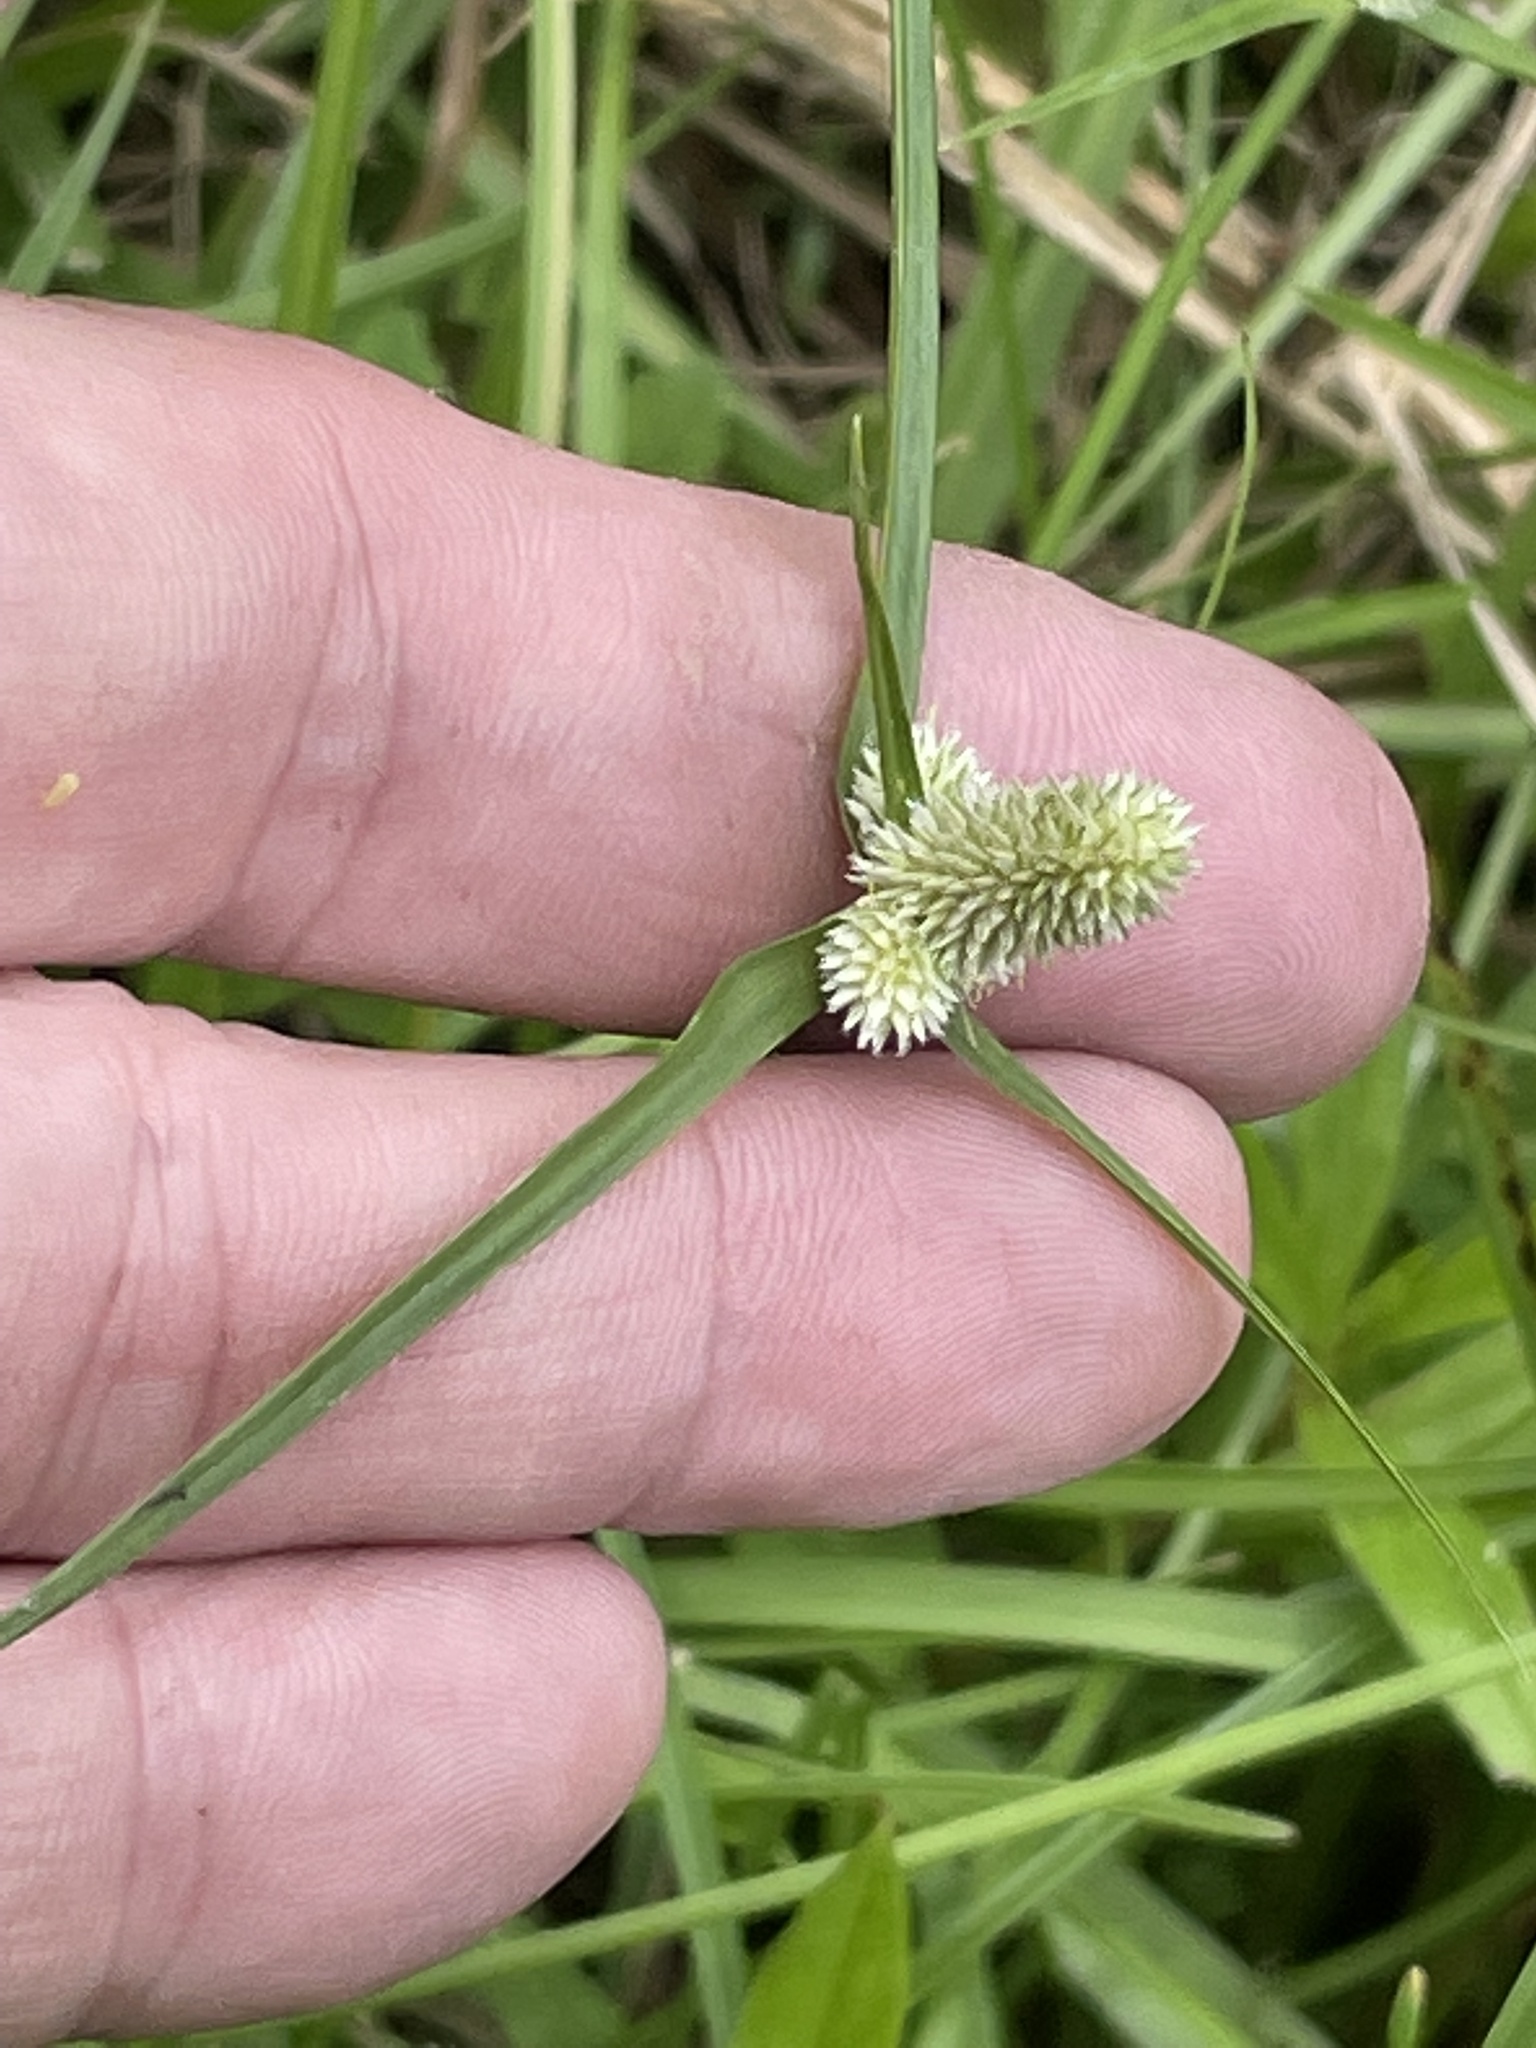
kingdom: Plantae
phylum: Tracheophyta
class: Liliopsida
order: Poales
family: Cyperaceae
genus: Cyperus
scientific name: Cyperus sesquiflorus
